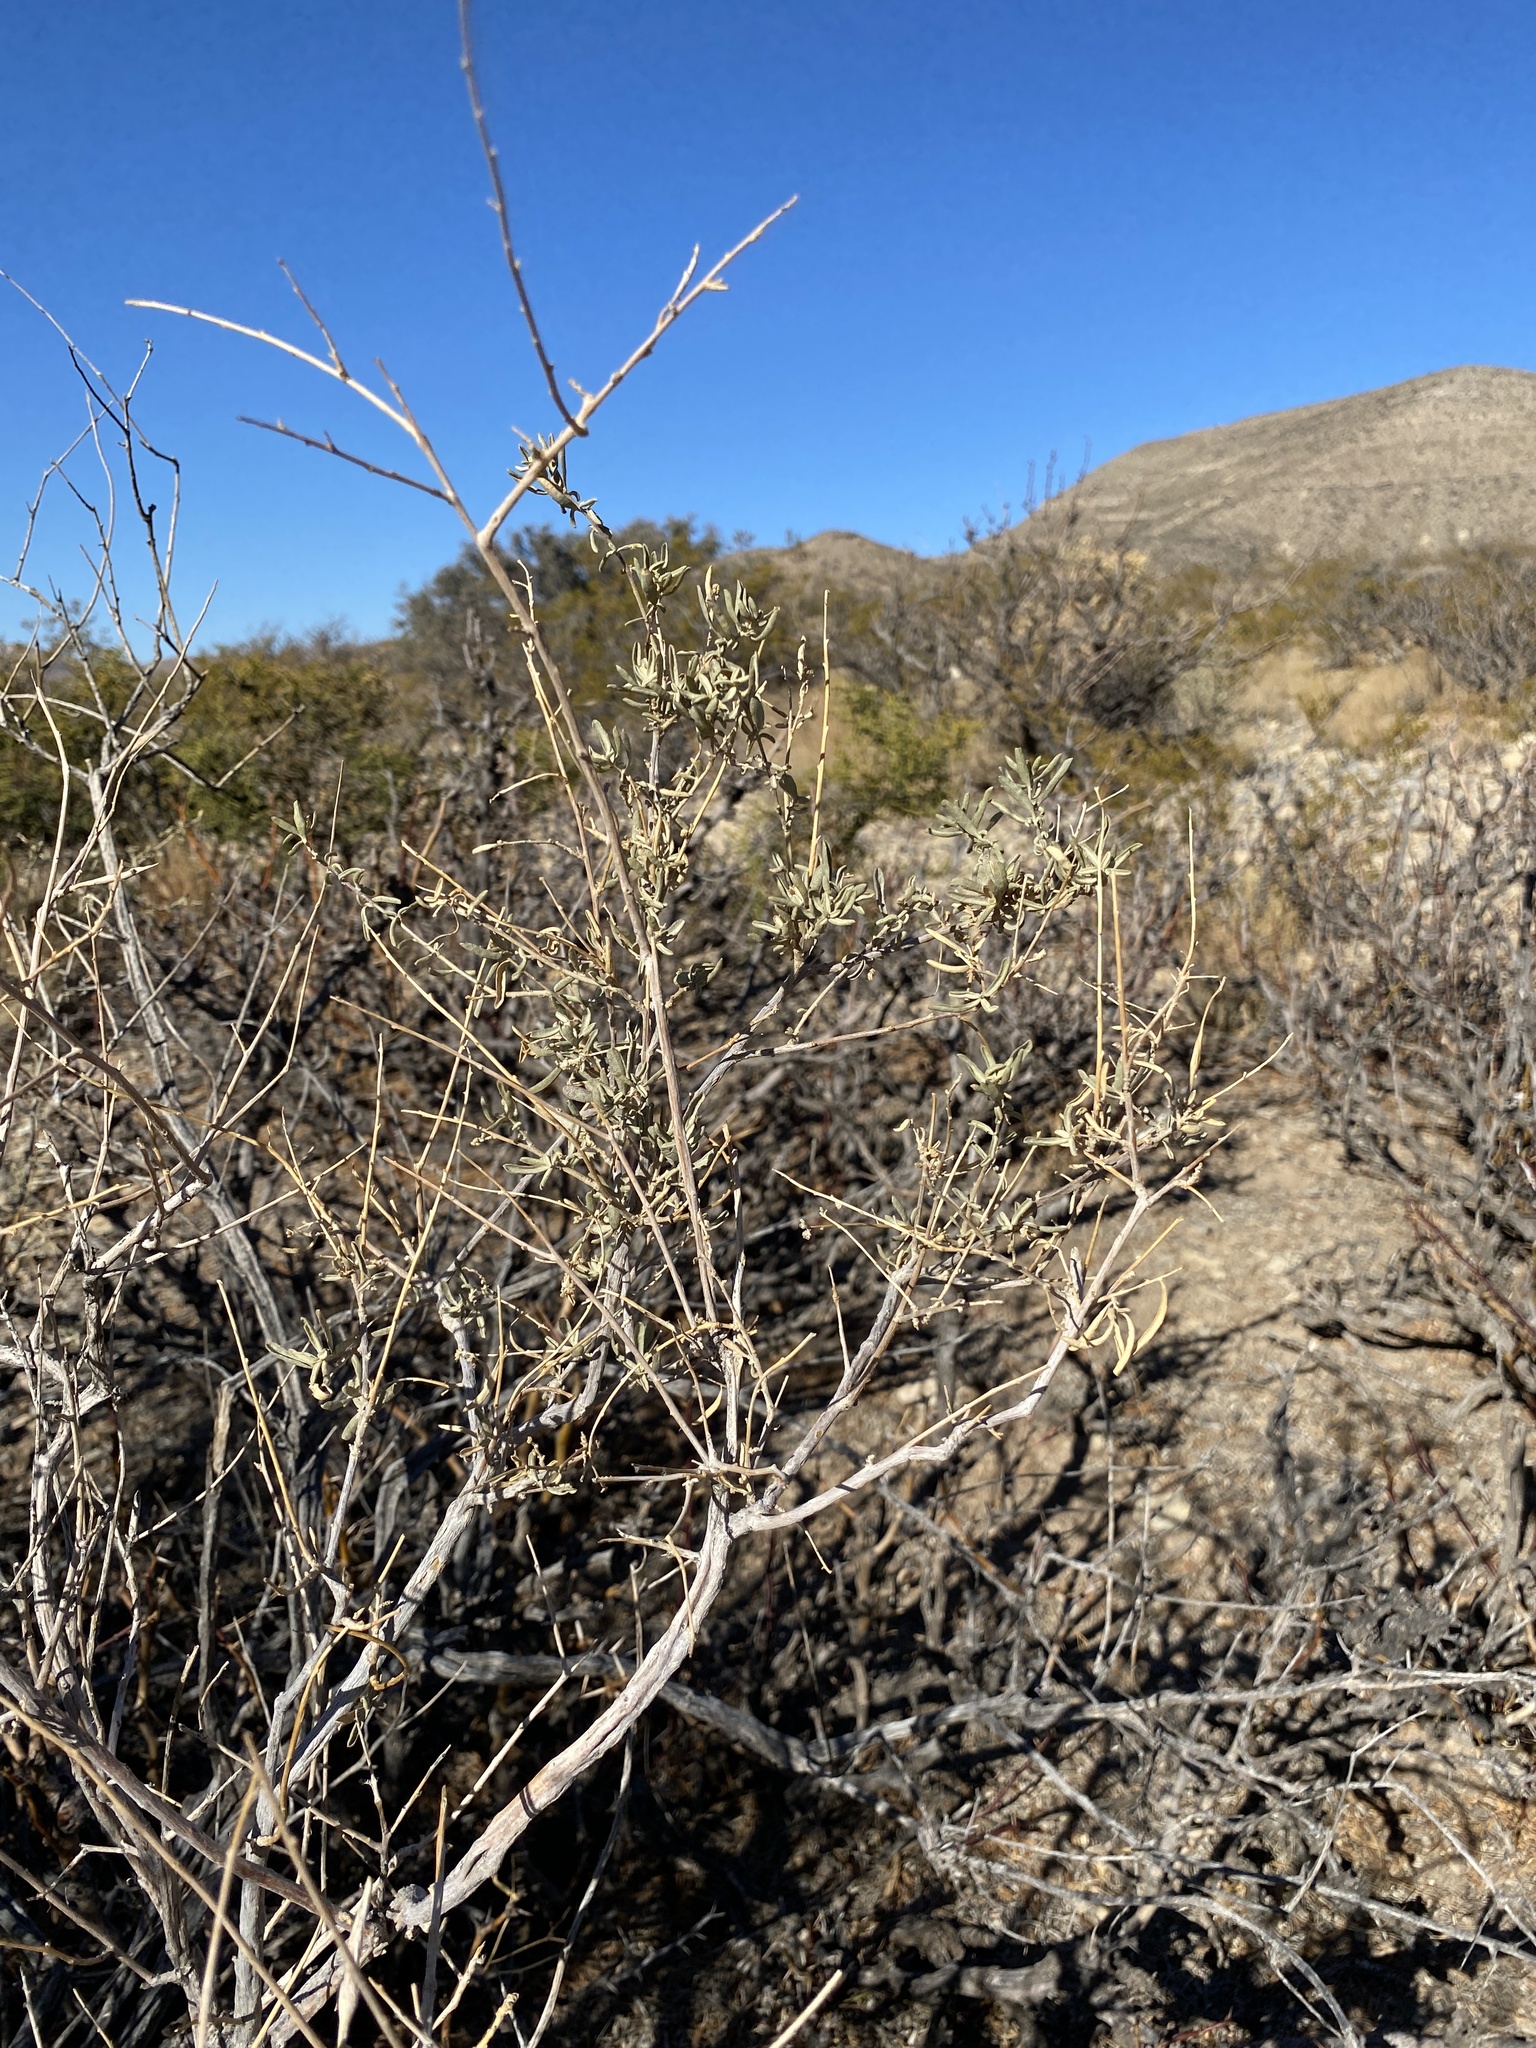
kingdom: Plantae
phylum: Tracheophyta
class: Magnoliopsida
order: Caryophyllales
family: Amaranthaceae
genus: Atriplex
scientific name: Atriplex canescens
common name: Four-wing saltbush
